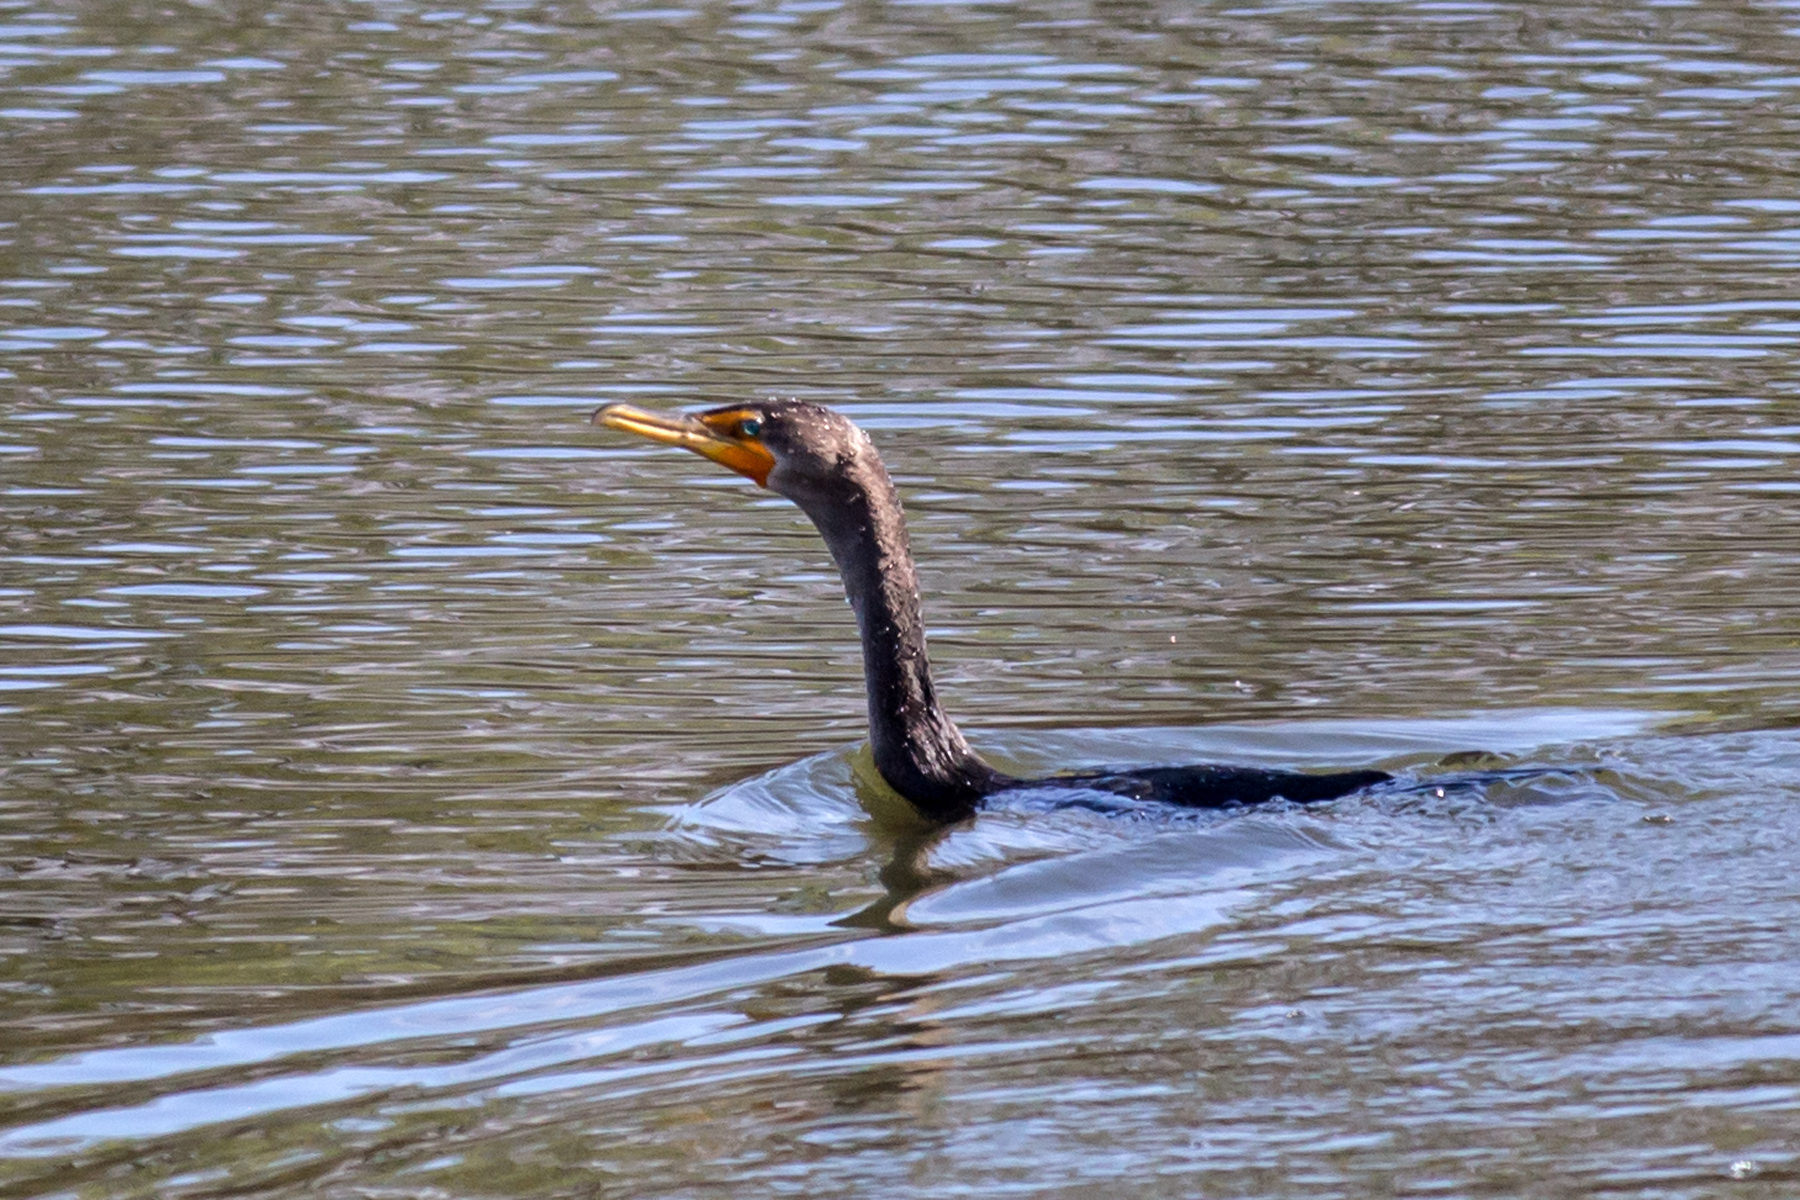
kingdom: Animalia
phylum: Chordata
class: Aves
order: Suliformes
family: Phalacrocoracidae
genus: Phalacrocorax
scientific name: Phalacrocorax auritus
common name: Double-crested cormorant
